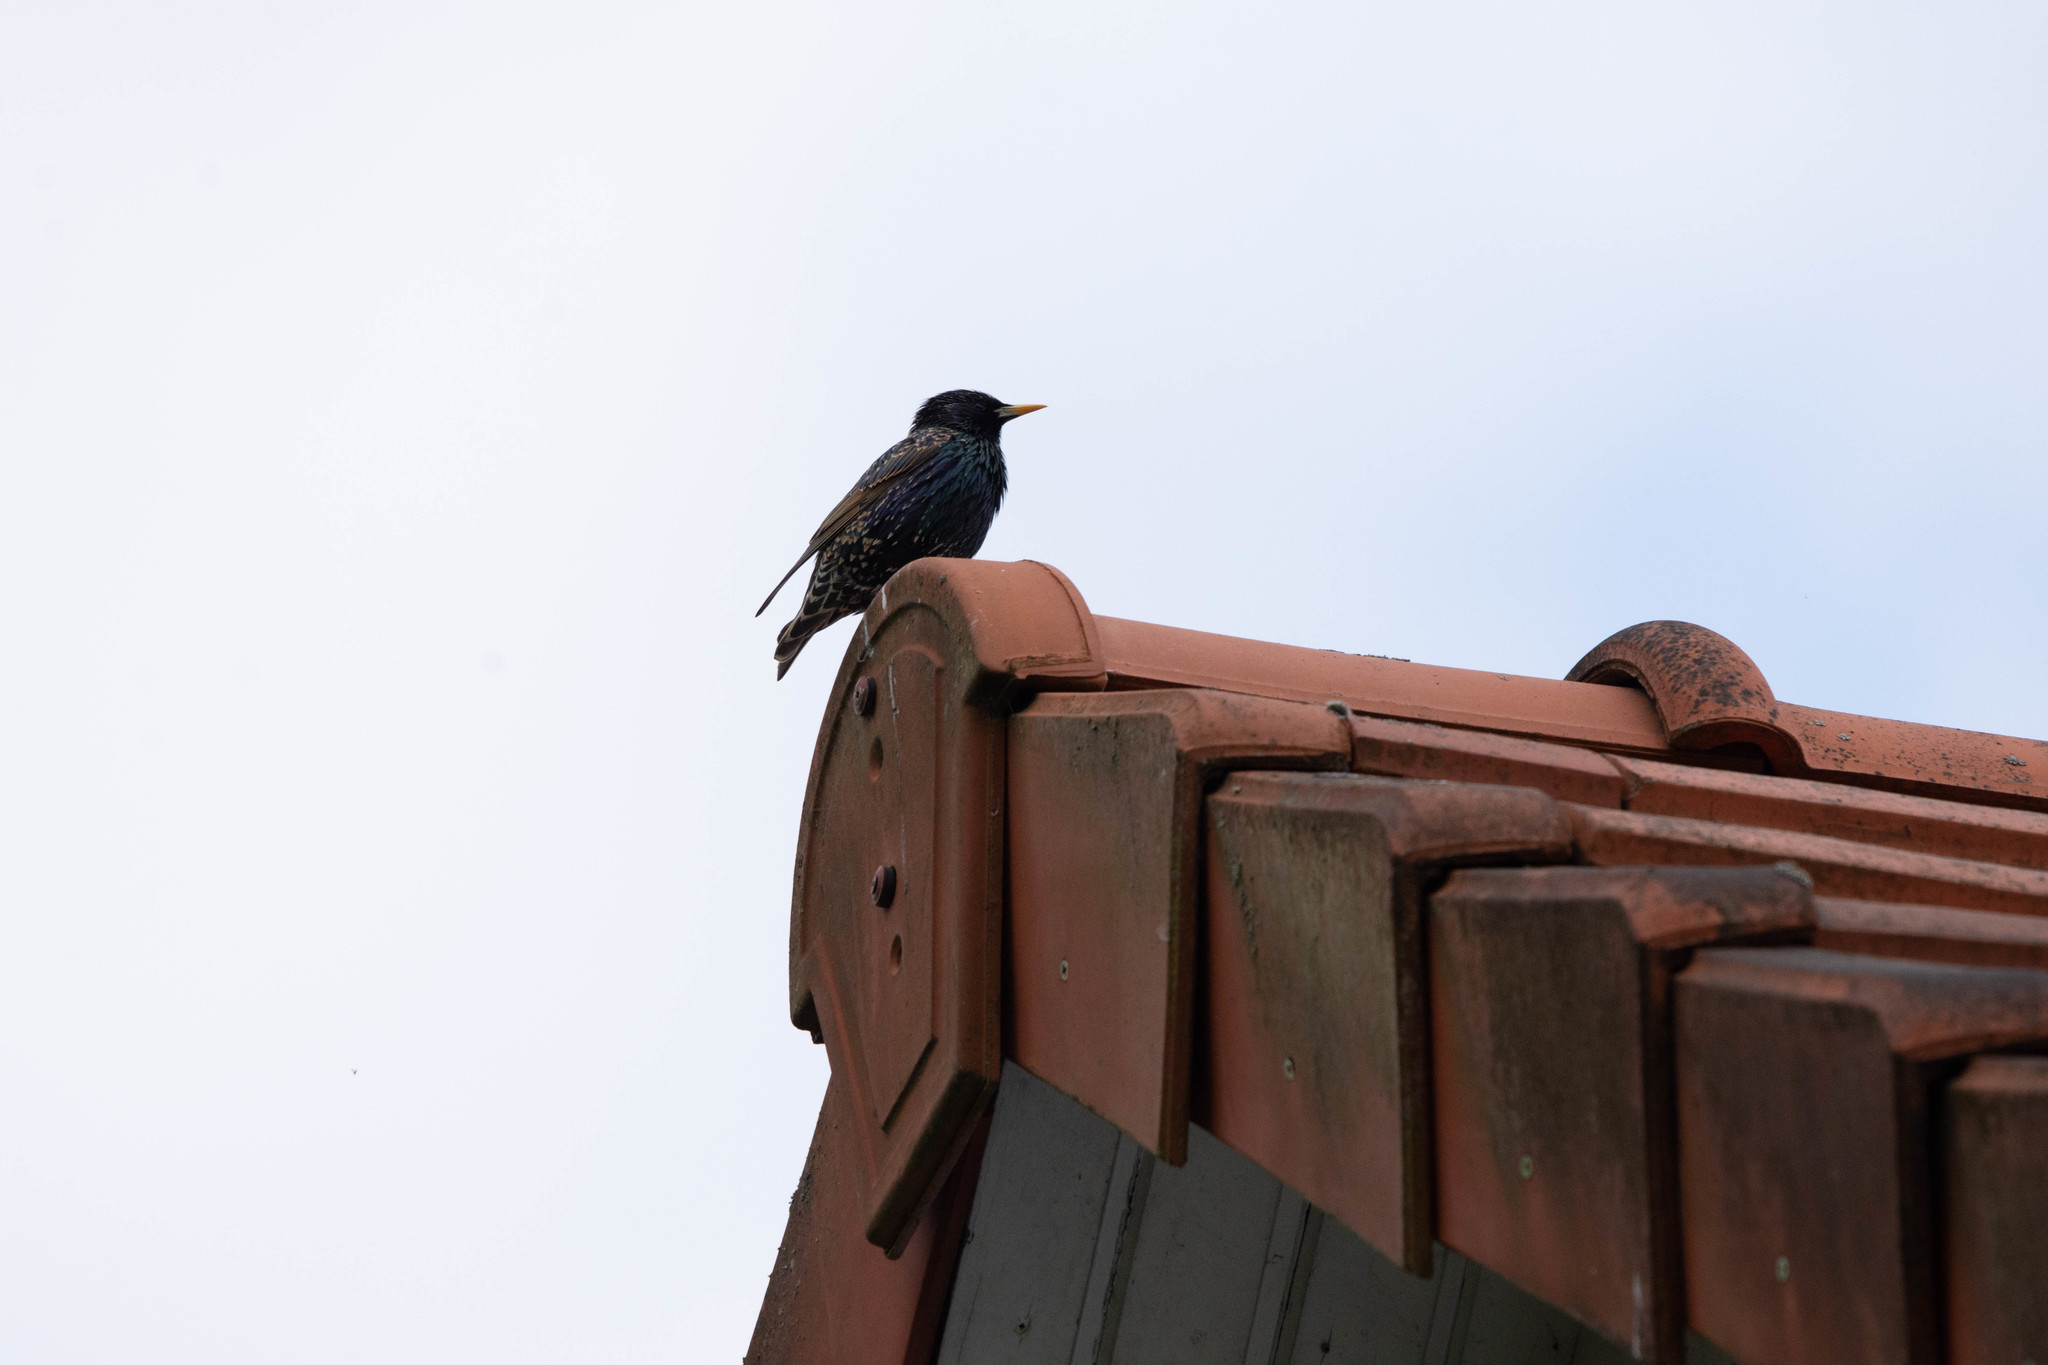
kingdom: Animalia
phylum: Chordata
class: Aves
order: Passeriformes
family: Sturnidae
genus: Sturnus
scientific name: Sturnus vulgaris
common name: Common starling
